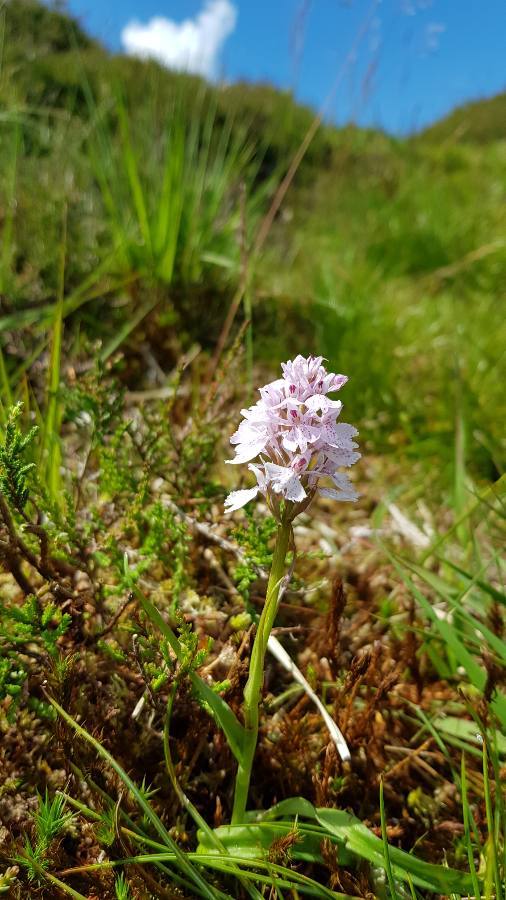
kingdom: Plantae
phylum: Tracheophyta
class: Liliopsida
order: Asparagales
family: Orchidaceae
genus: Dactylorhiza
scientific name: Dactylorhiza maculata
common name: Heath spotted-orchid
